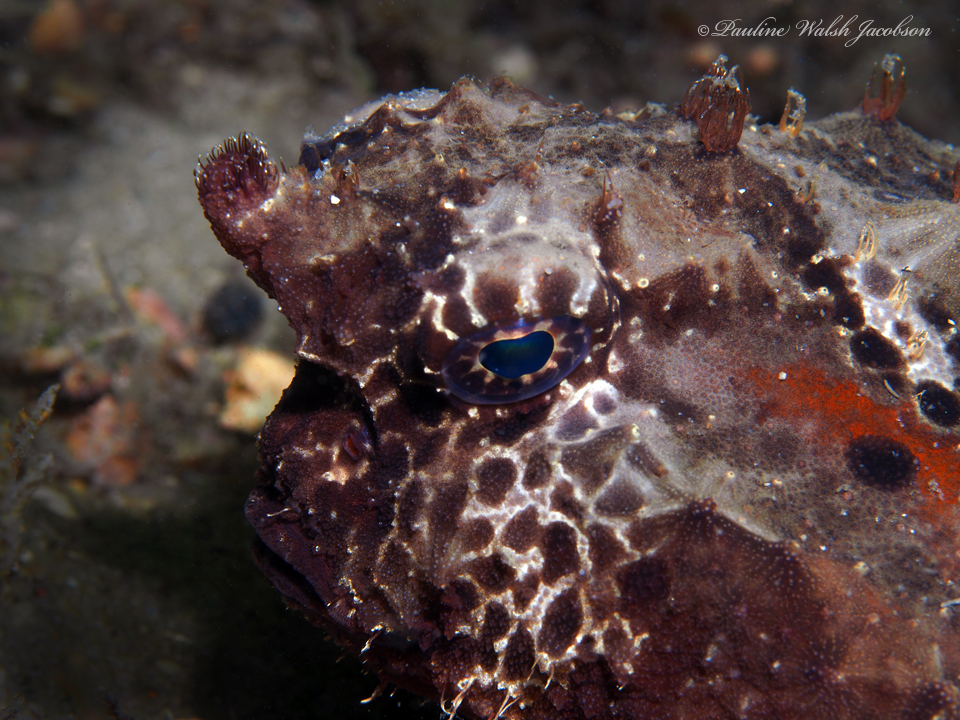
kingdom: Animalia
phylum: Chordata
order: Lophiiformes
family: Ogcocephalidae
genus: Ogcocephalus
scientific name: Ogcocephalus cubifrons
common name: Polka-dot batfish
